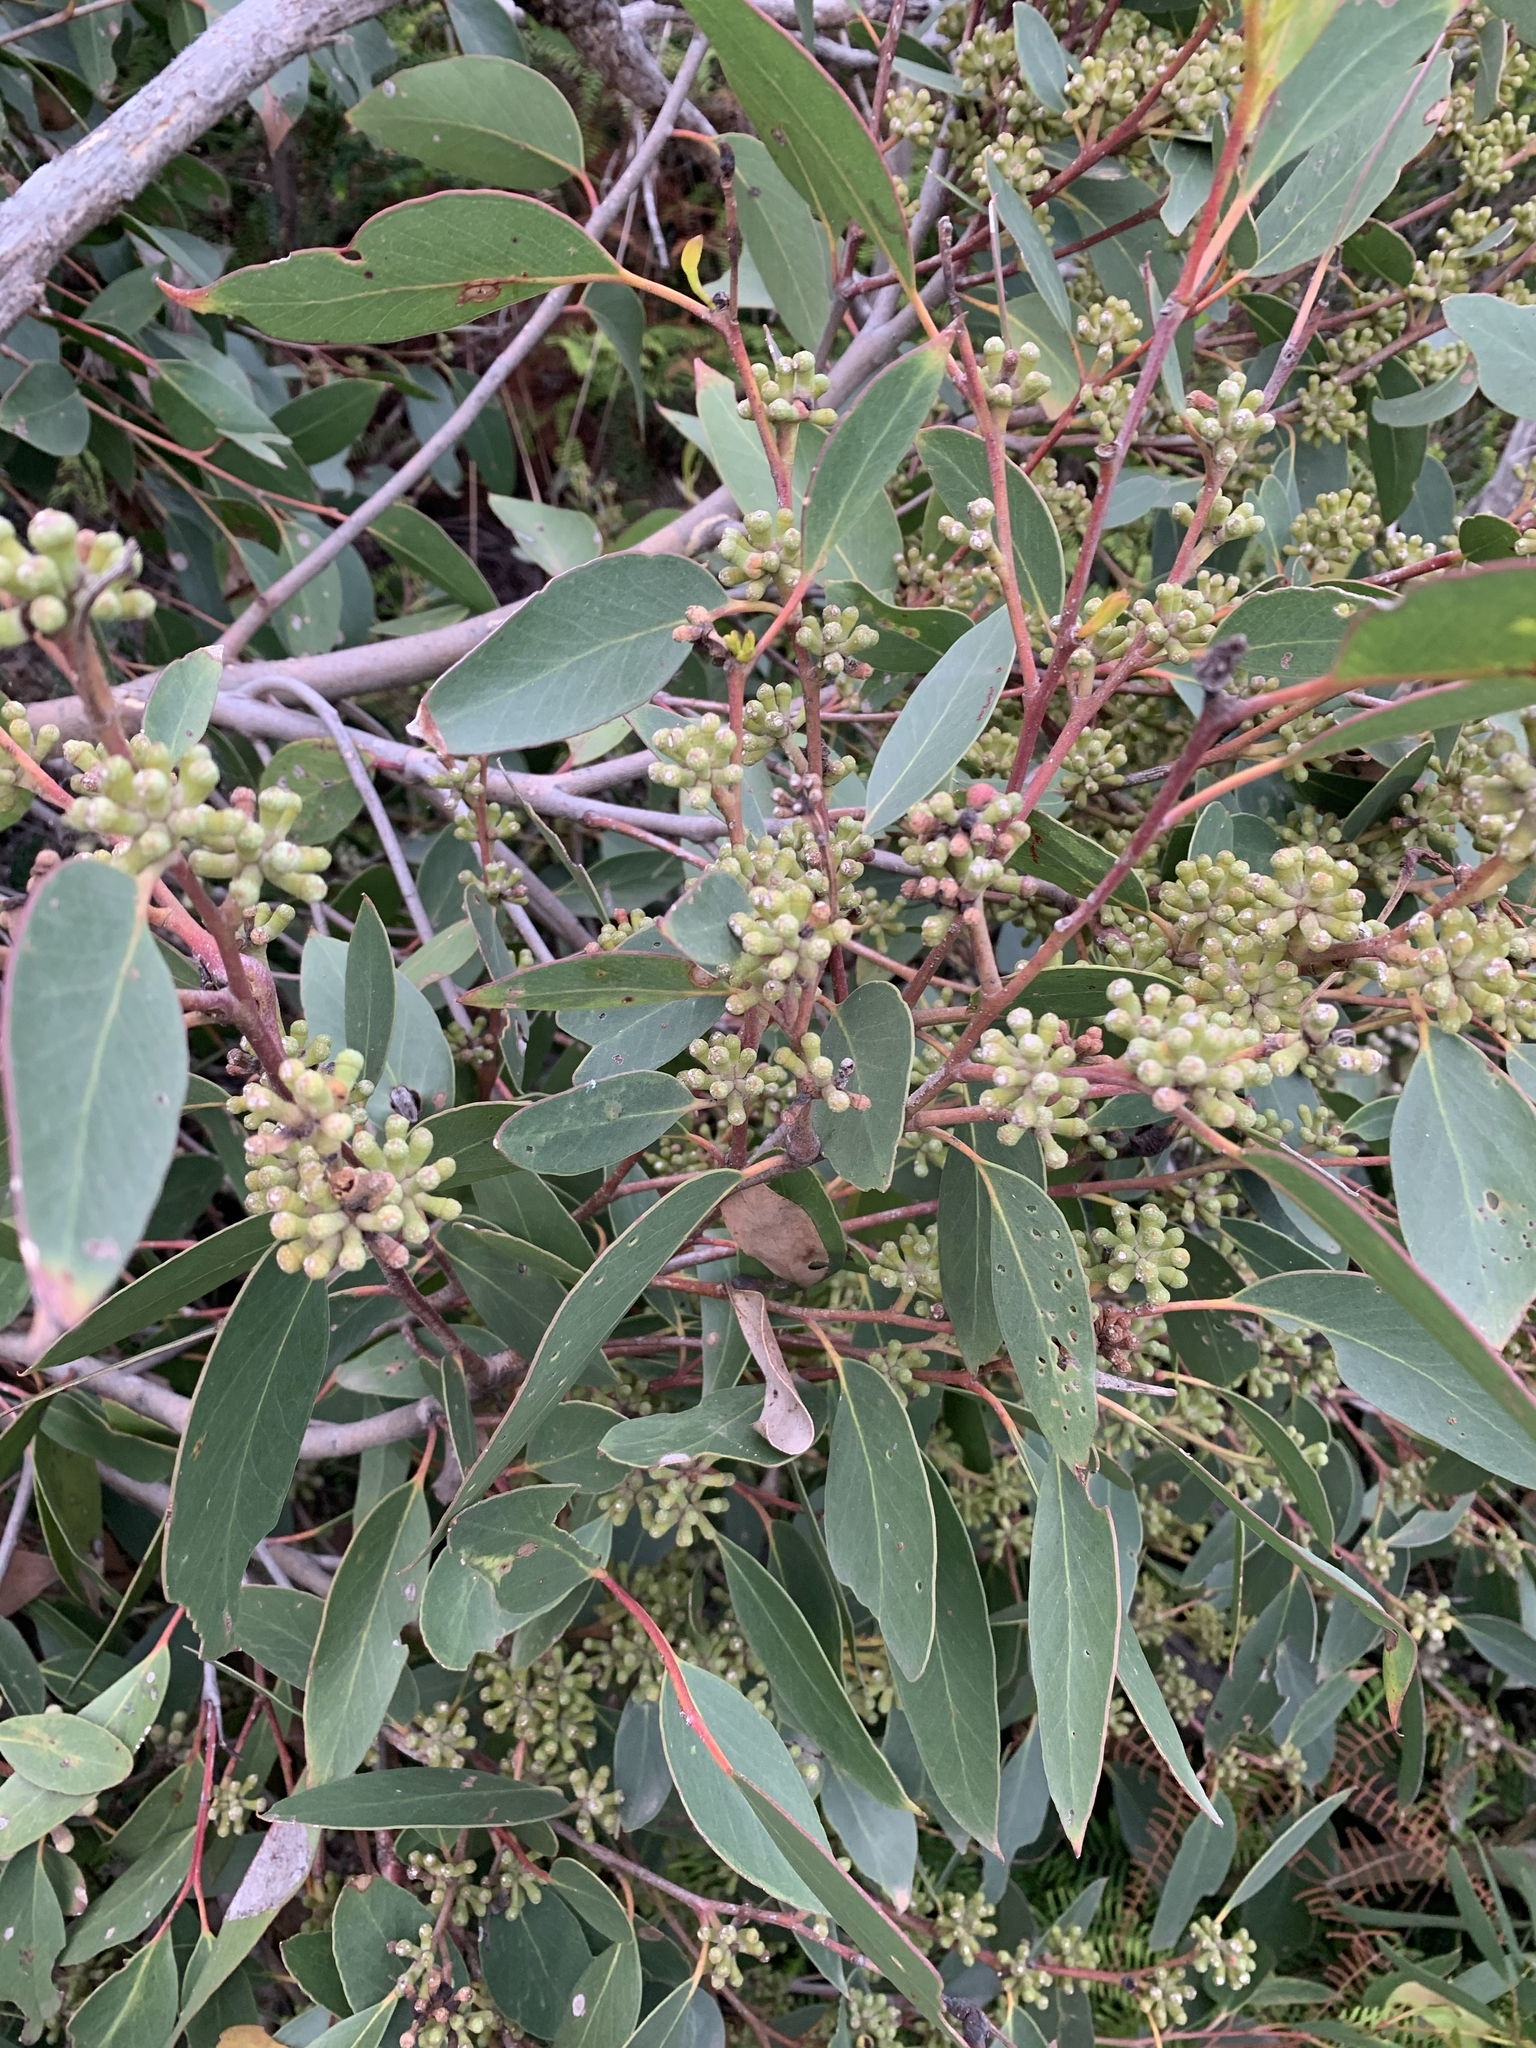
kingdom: Plantae
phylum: Tracheophyta
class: Magnoliopsida
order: Myrtales
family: Myrtaceae
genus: Eucalyptus
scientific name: Eucalyptus baxteri
